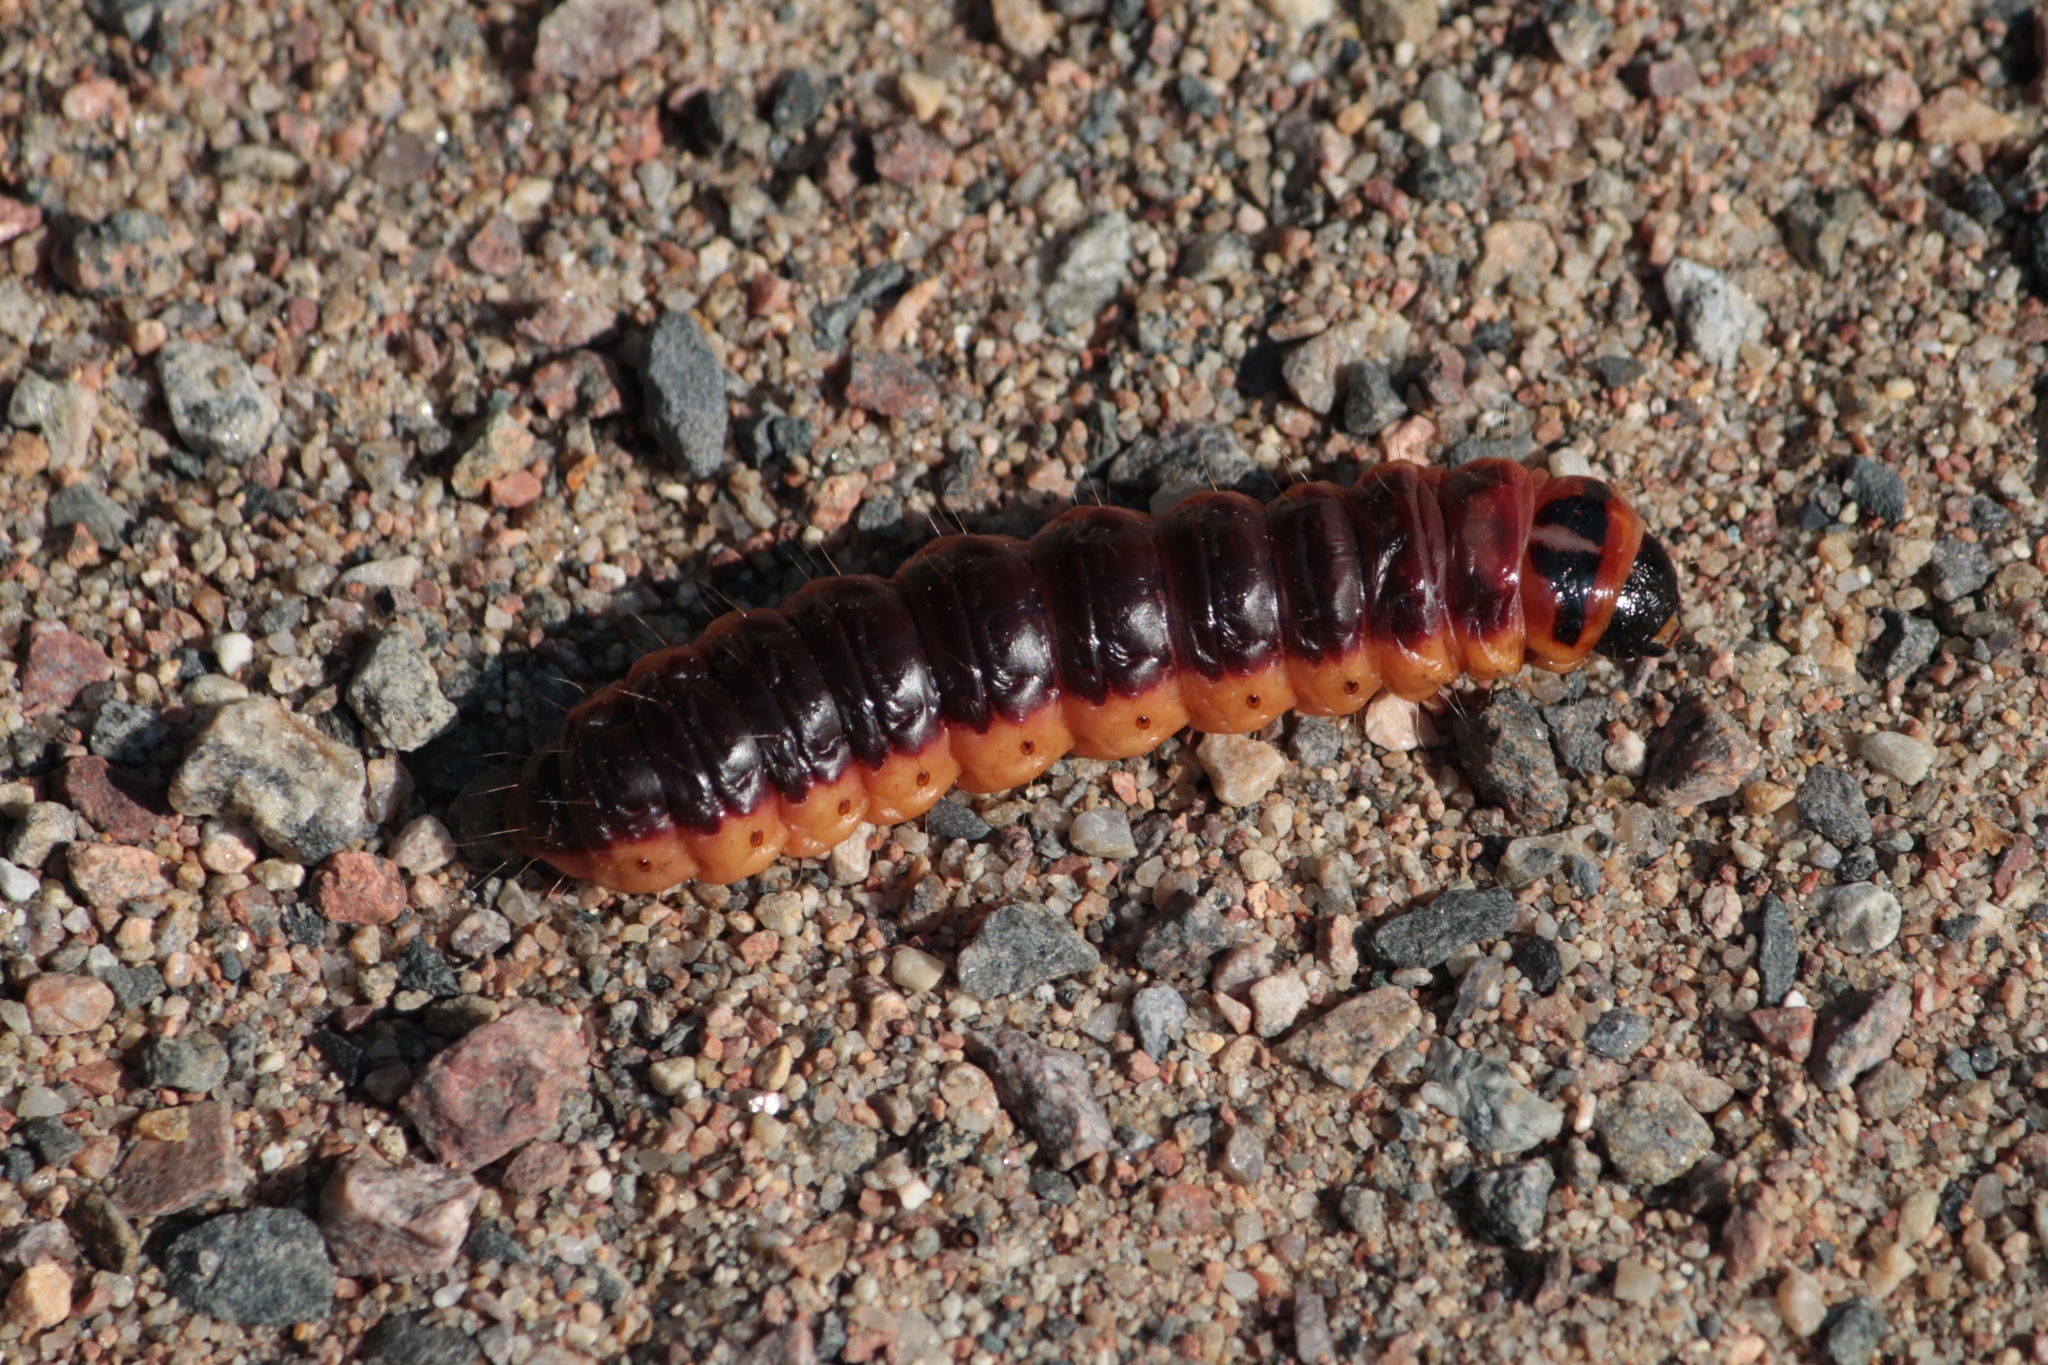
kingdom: Animalia
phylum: Arthropoda
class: Insecta
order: Lepidoptera
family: Cossidae
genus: Cossus
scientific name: Cossus cossus
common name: Goat moth
